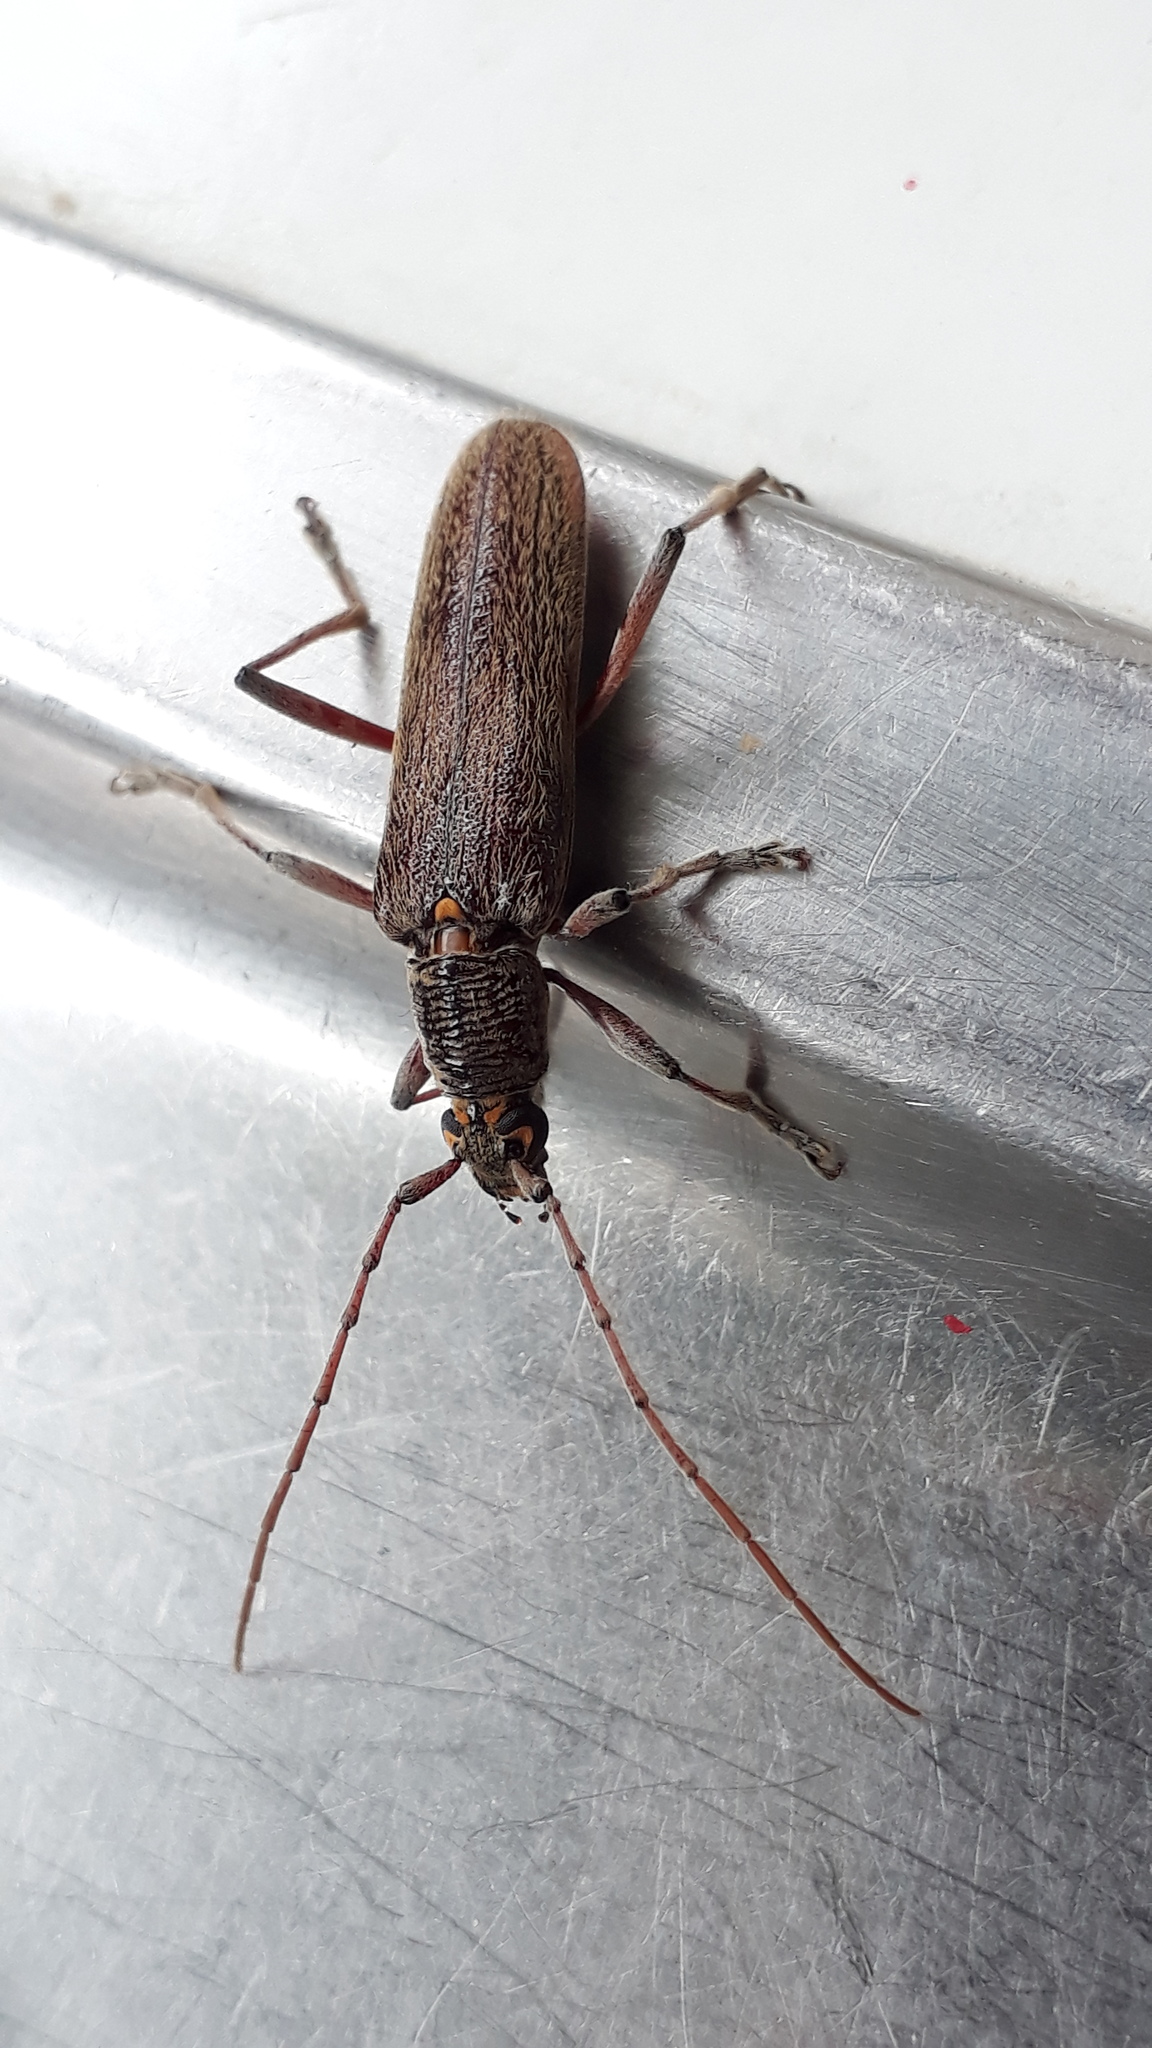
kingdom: Animalia
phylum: Arthropoda
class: Insecta
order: Coleoptera
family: Cerambycidae
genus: Oemona
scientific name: Oemona hirta
